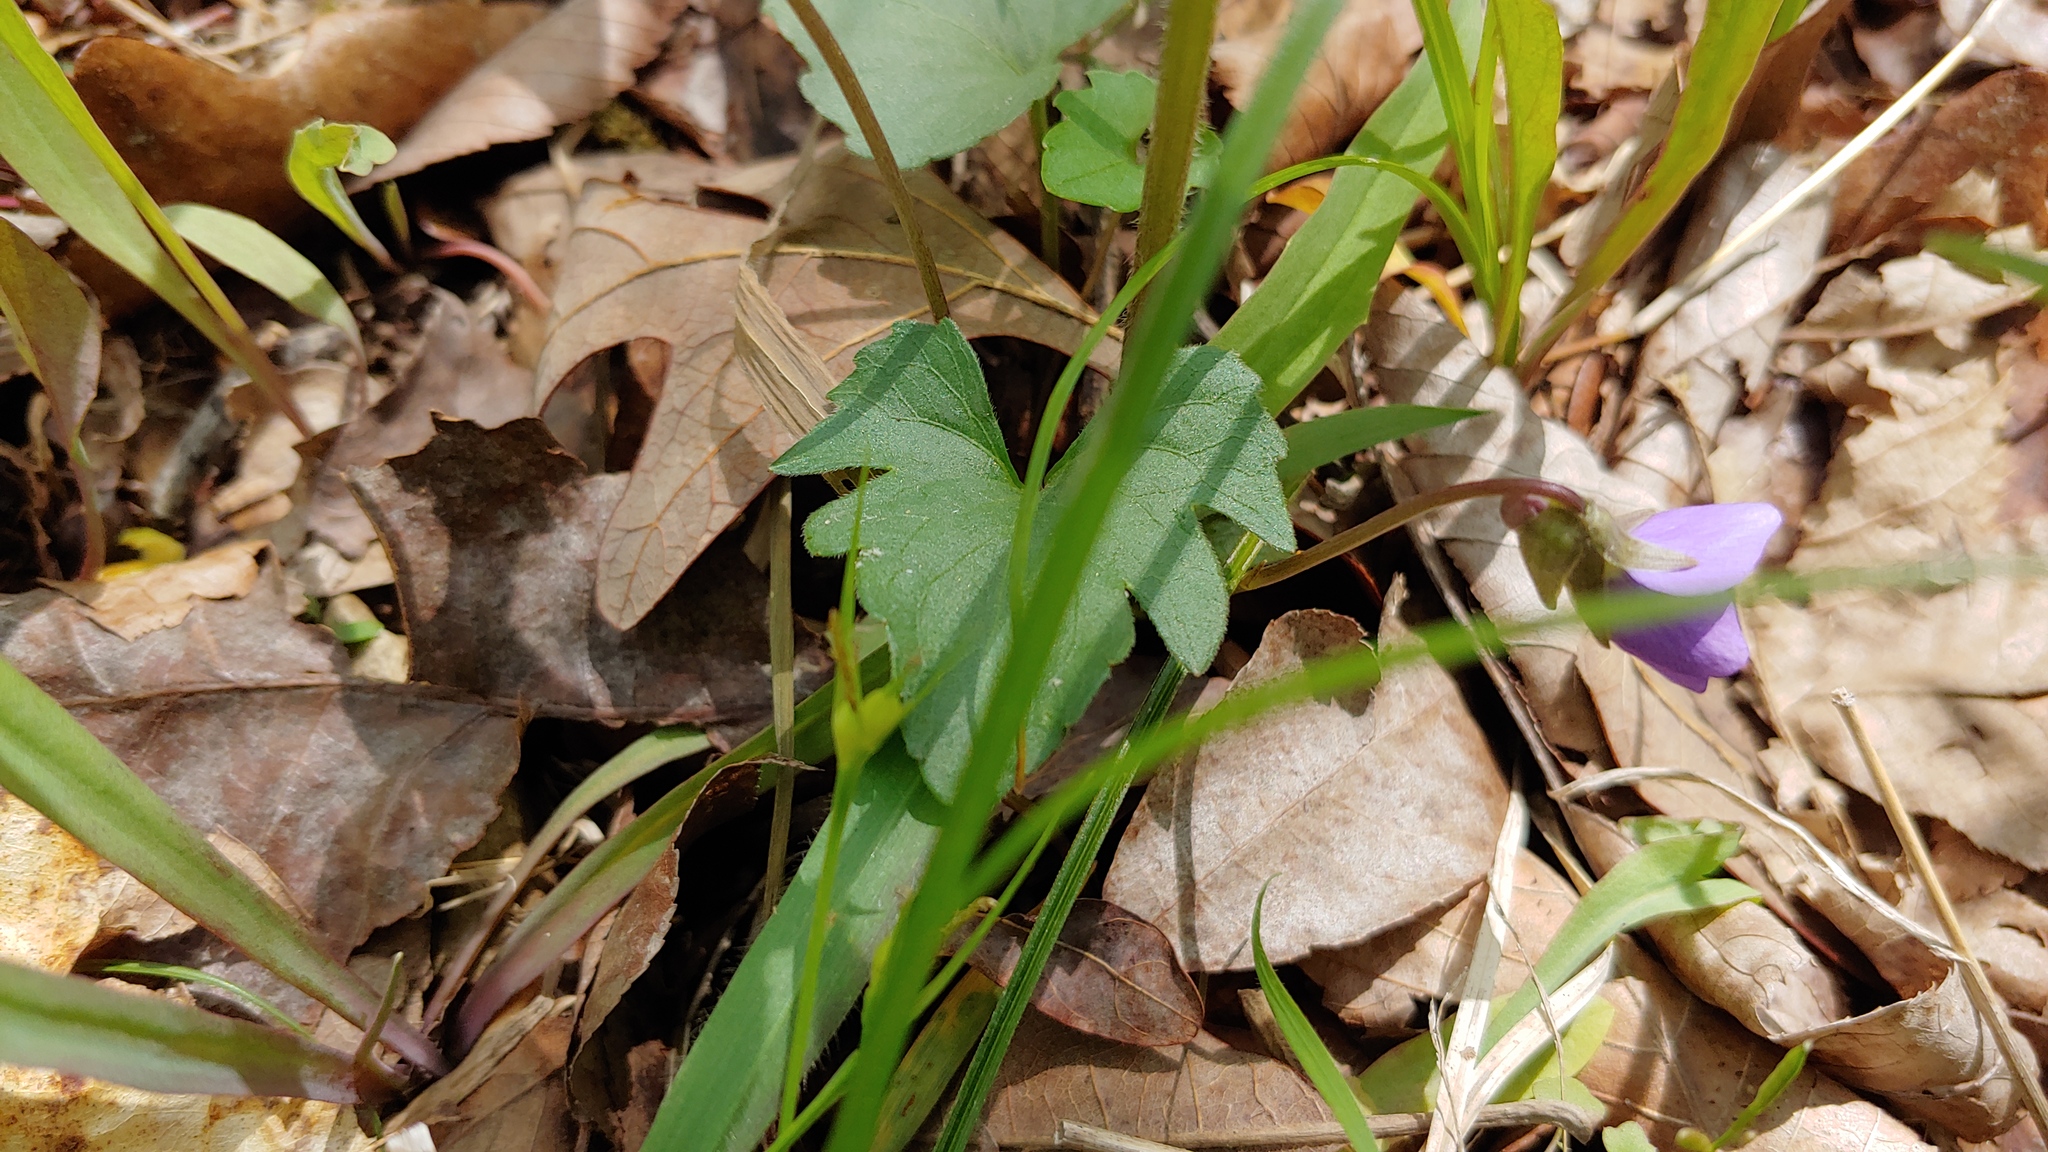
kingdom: Plantae
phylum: Tracheophyta
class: Magnoliopsida
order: Malpighiales
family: Violaceae
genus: Viola
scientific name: Viola palmata
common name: Early blue violet
